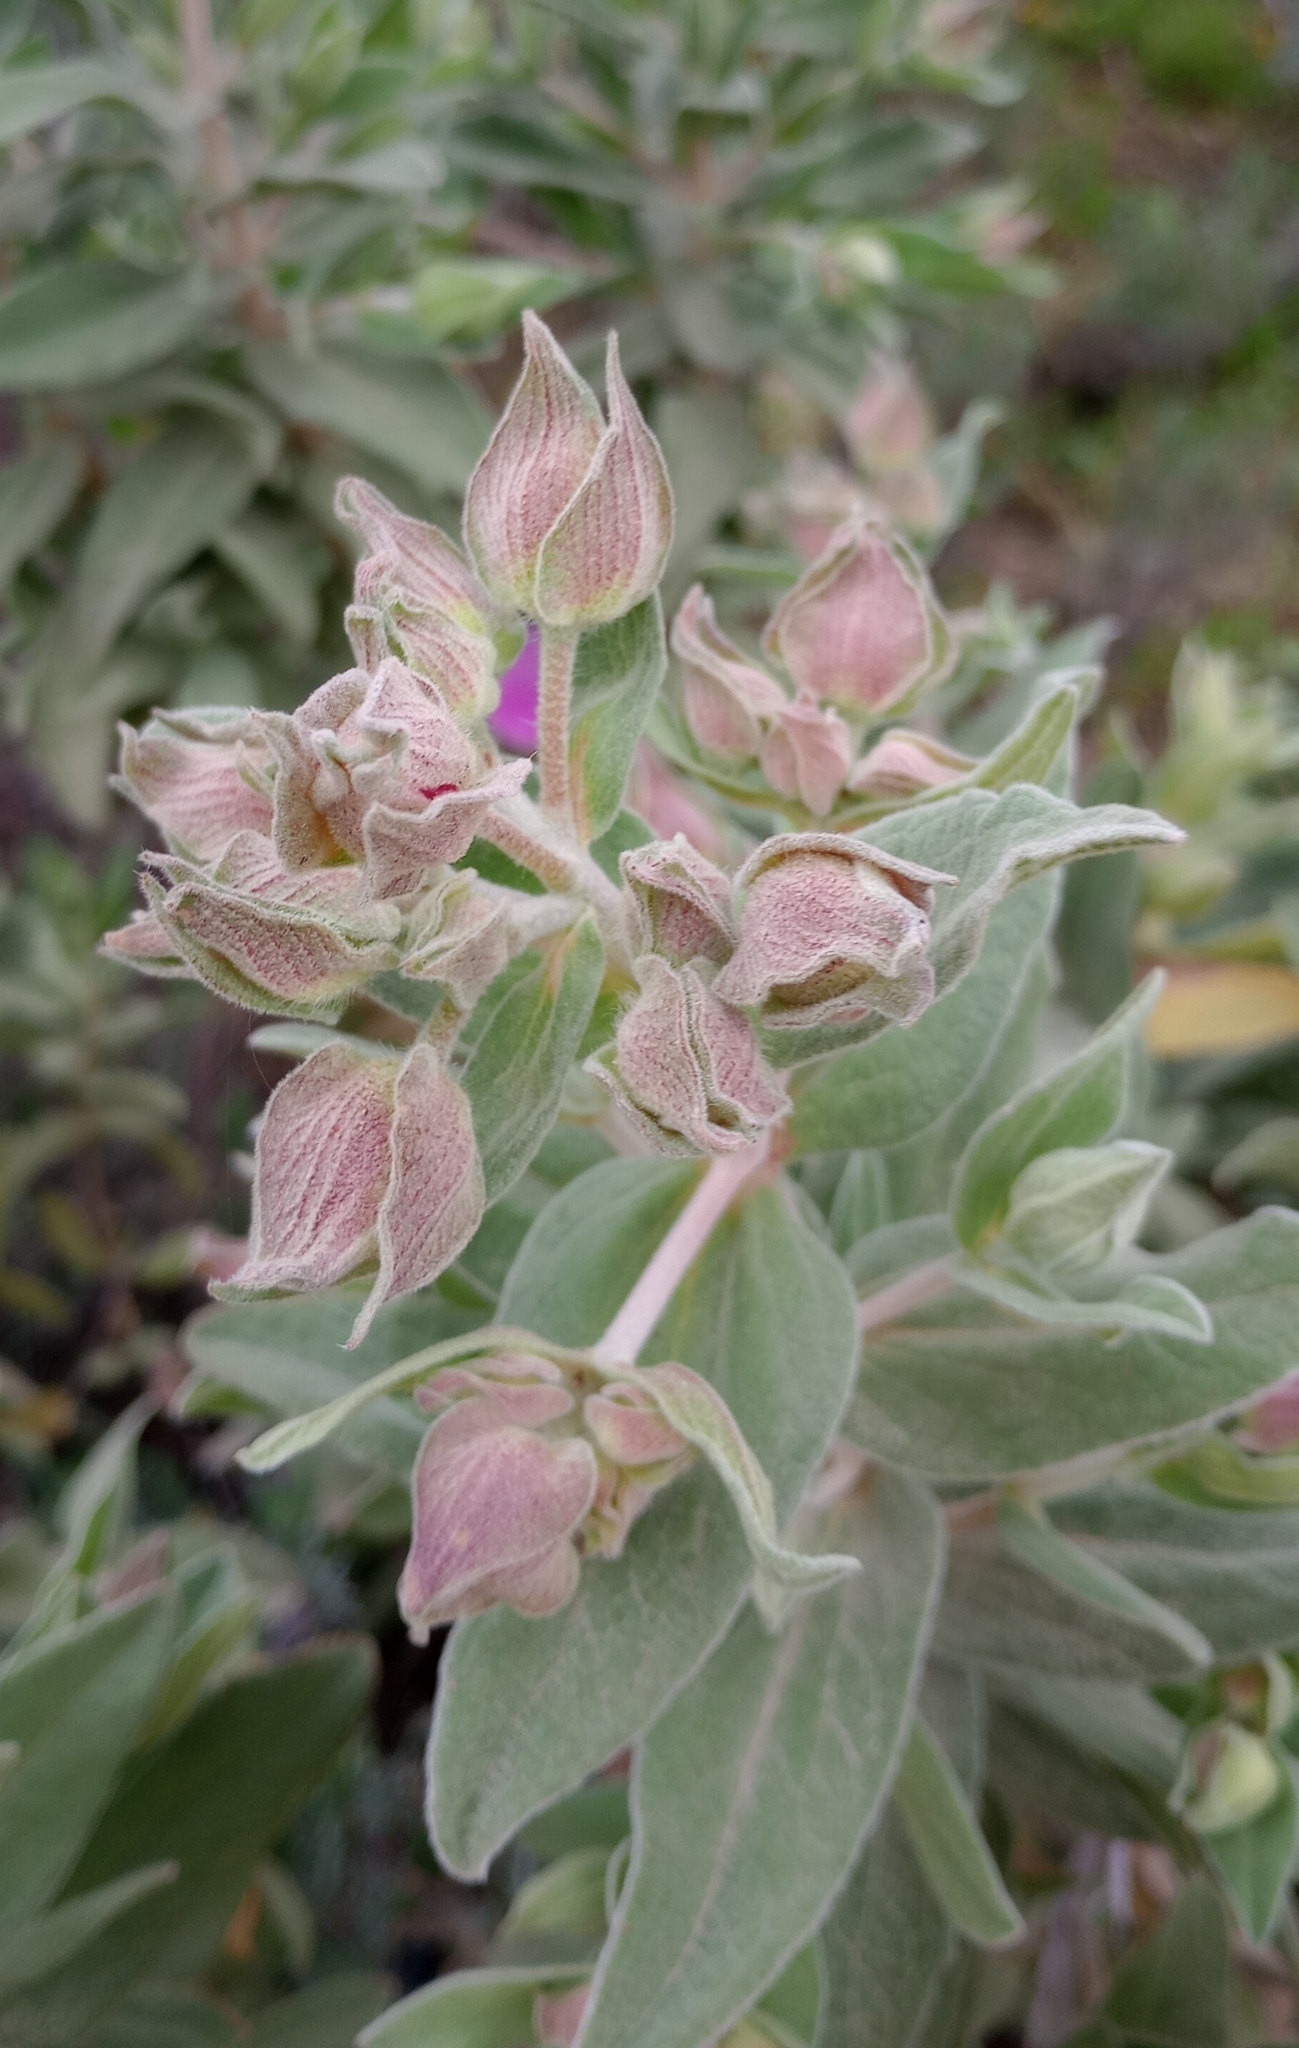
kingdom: Plantae
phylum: Tracheophyta
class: Magnoliopsida
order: Malvales
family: Cistaceae
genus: Cistus
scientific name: Cistus albidus
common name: White-leaf rock-rose
